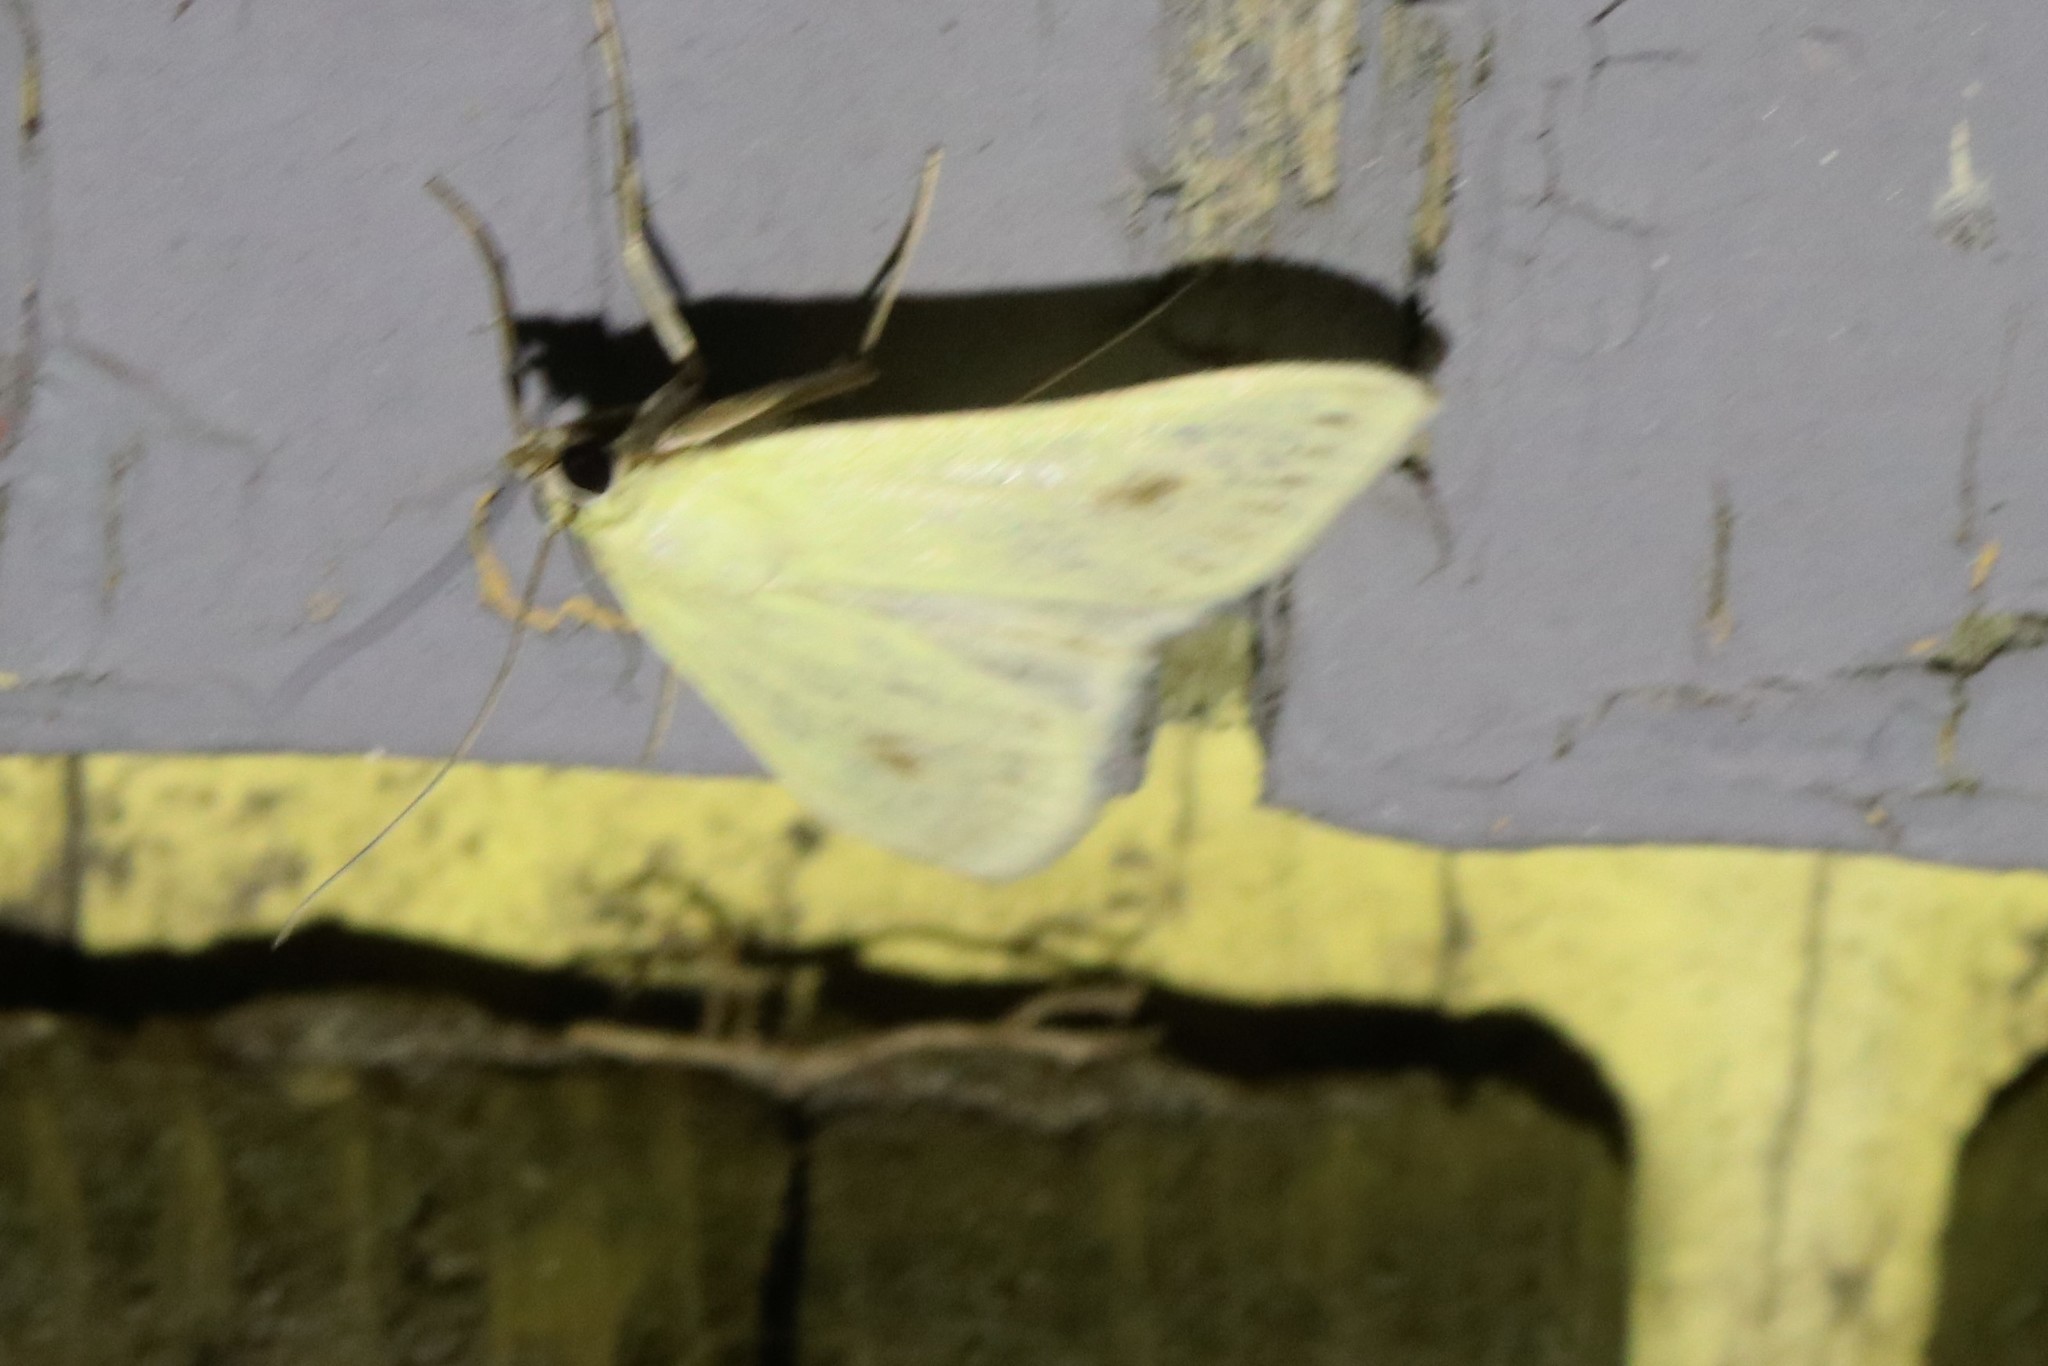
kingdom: Animalia
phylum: Arthropoda
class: Insecta
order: Lepidoptera
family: Crambidae
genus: Sitochroa
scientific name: Sitochroa palealis
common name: Greenish-yellow sitochroa moth
